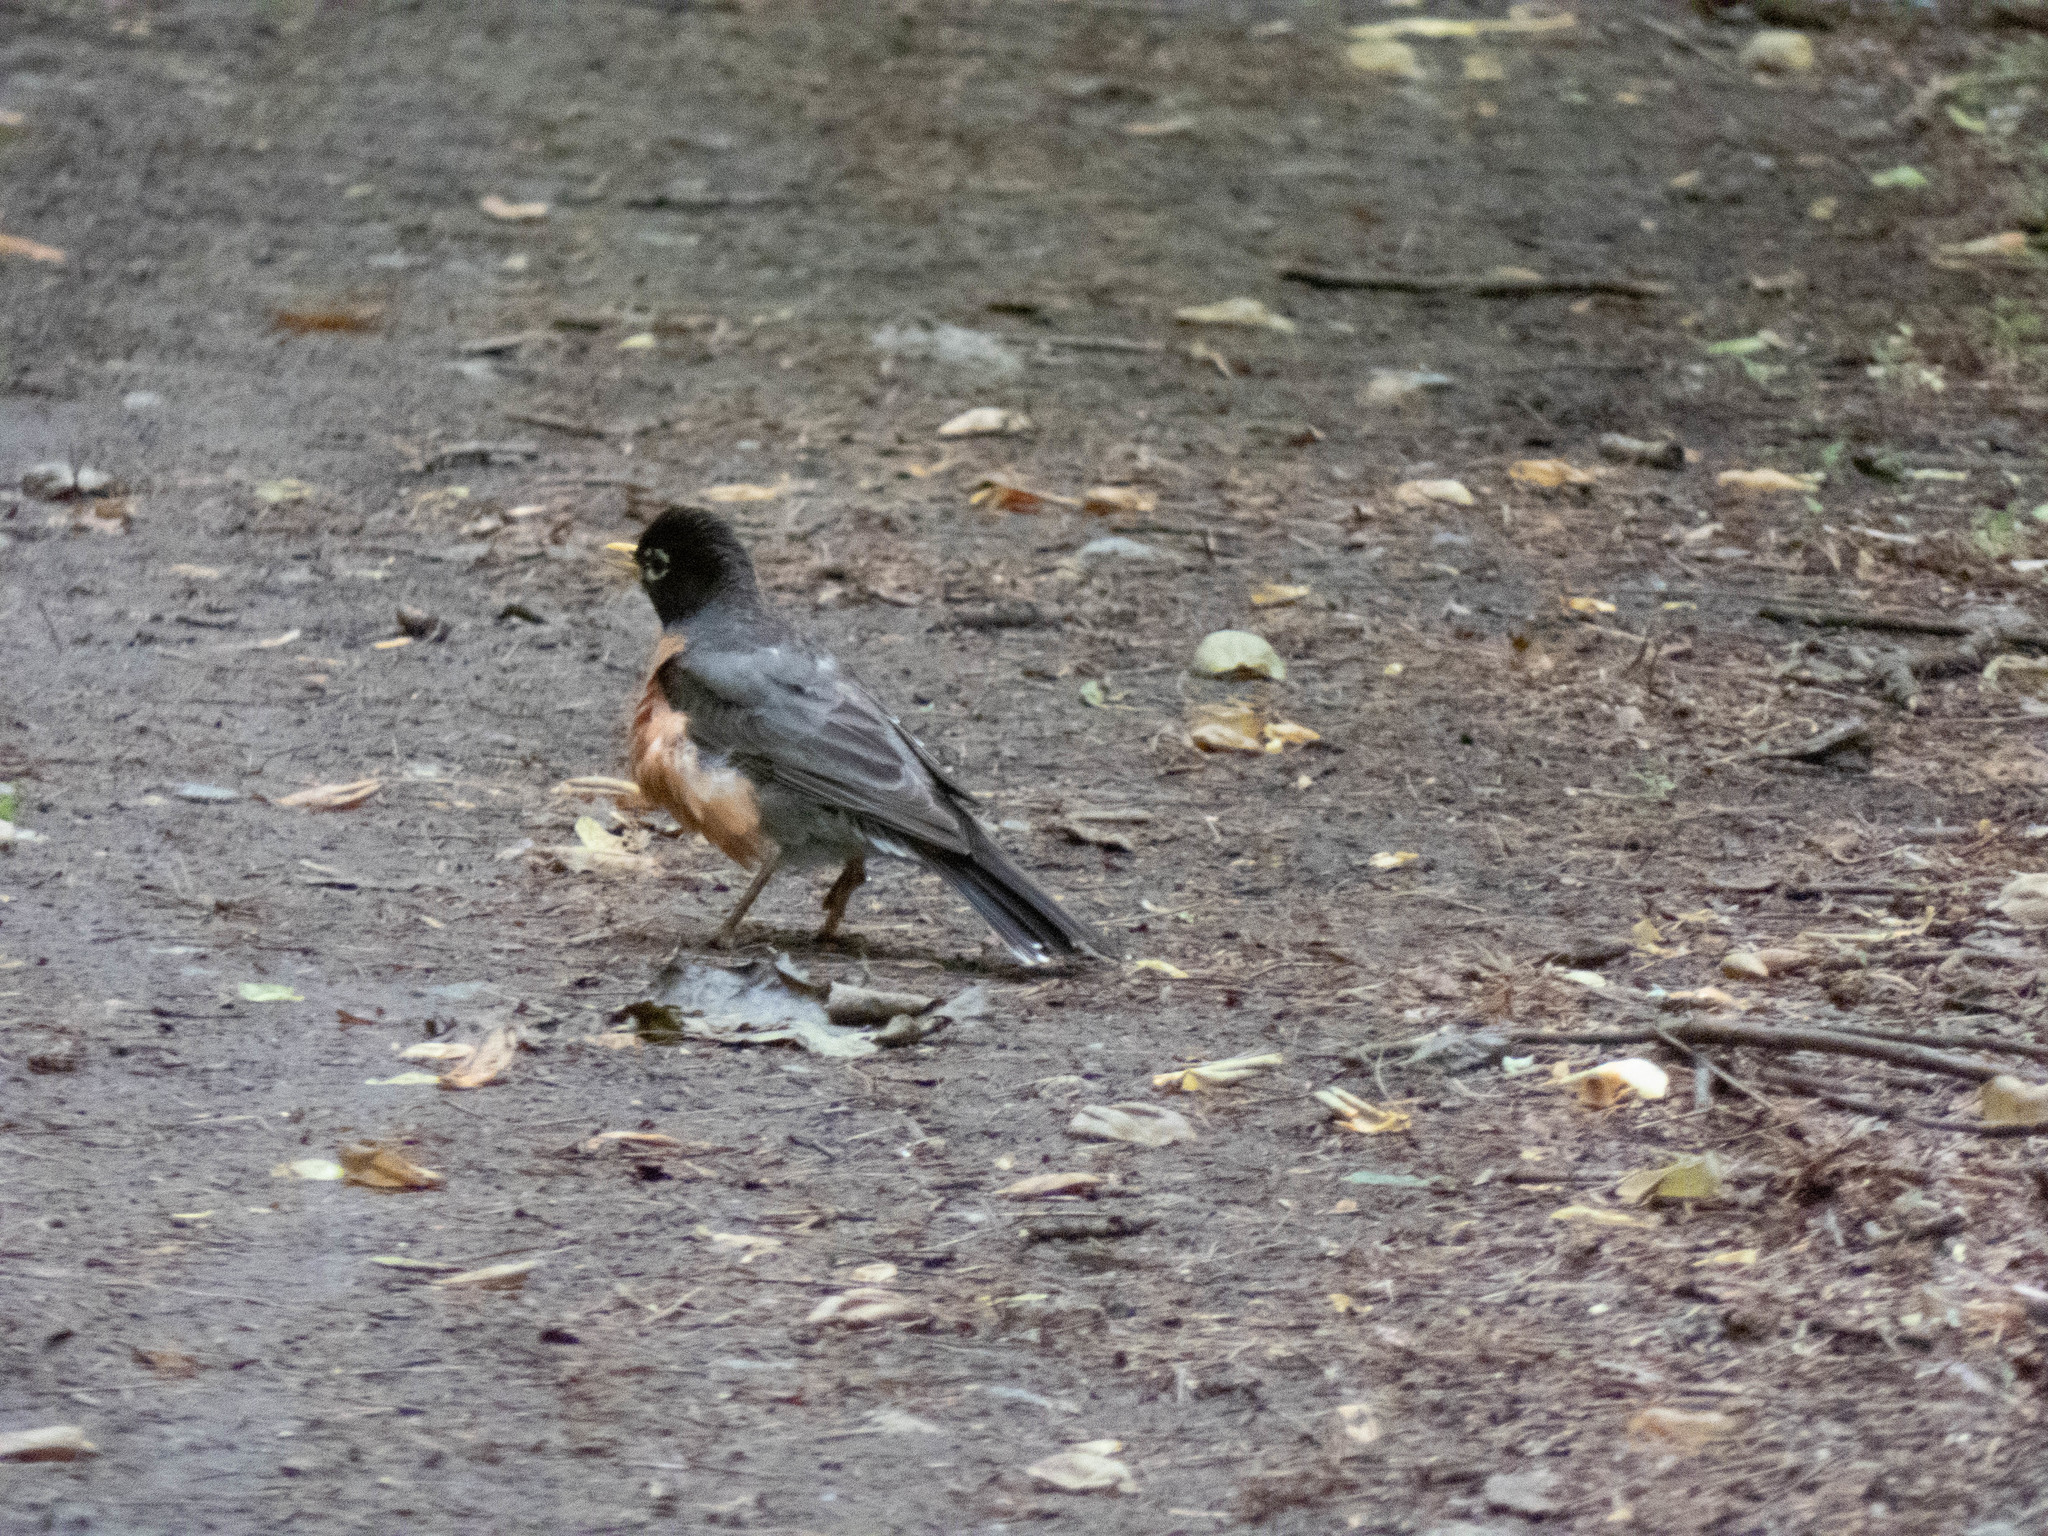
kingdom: Animalia
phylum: Chordata
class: Aves
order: Passeriformes
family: Turdidae
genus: Turdus
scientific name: Turdus migratorius
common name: American robin
